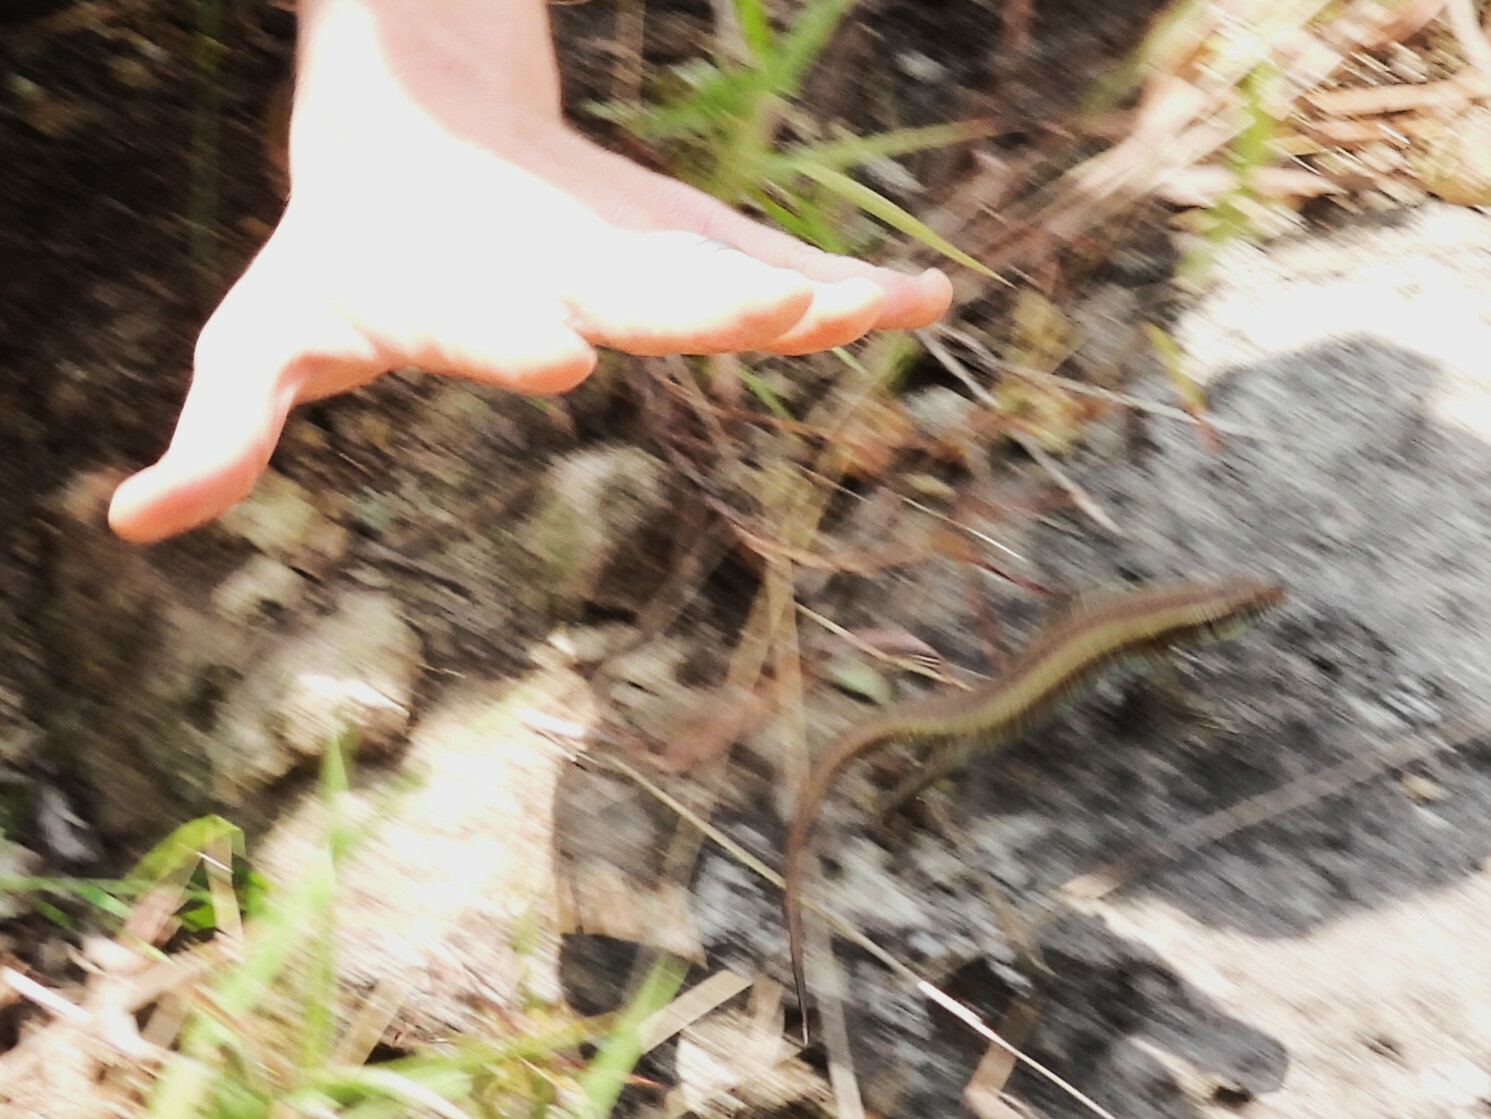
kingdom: Animalia
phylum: Chordata
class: Squamata
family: Scincidae
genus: Trachylepis
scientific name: Trachylepis striata
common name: African striped mabuya
